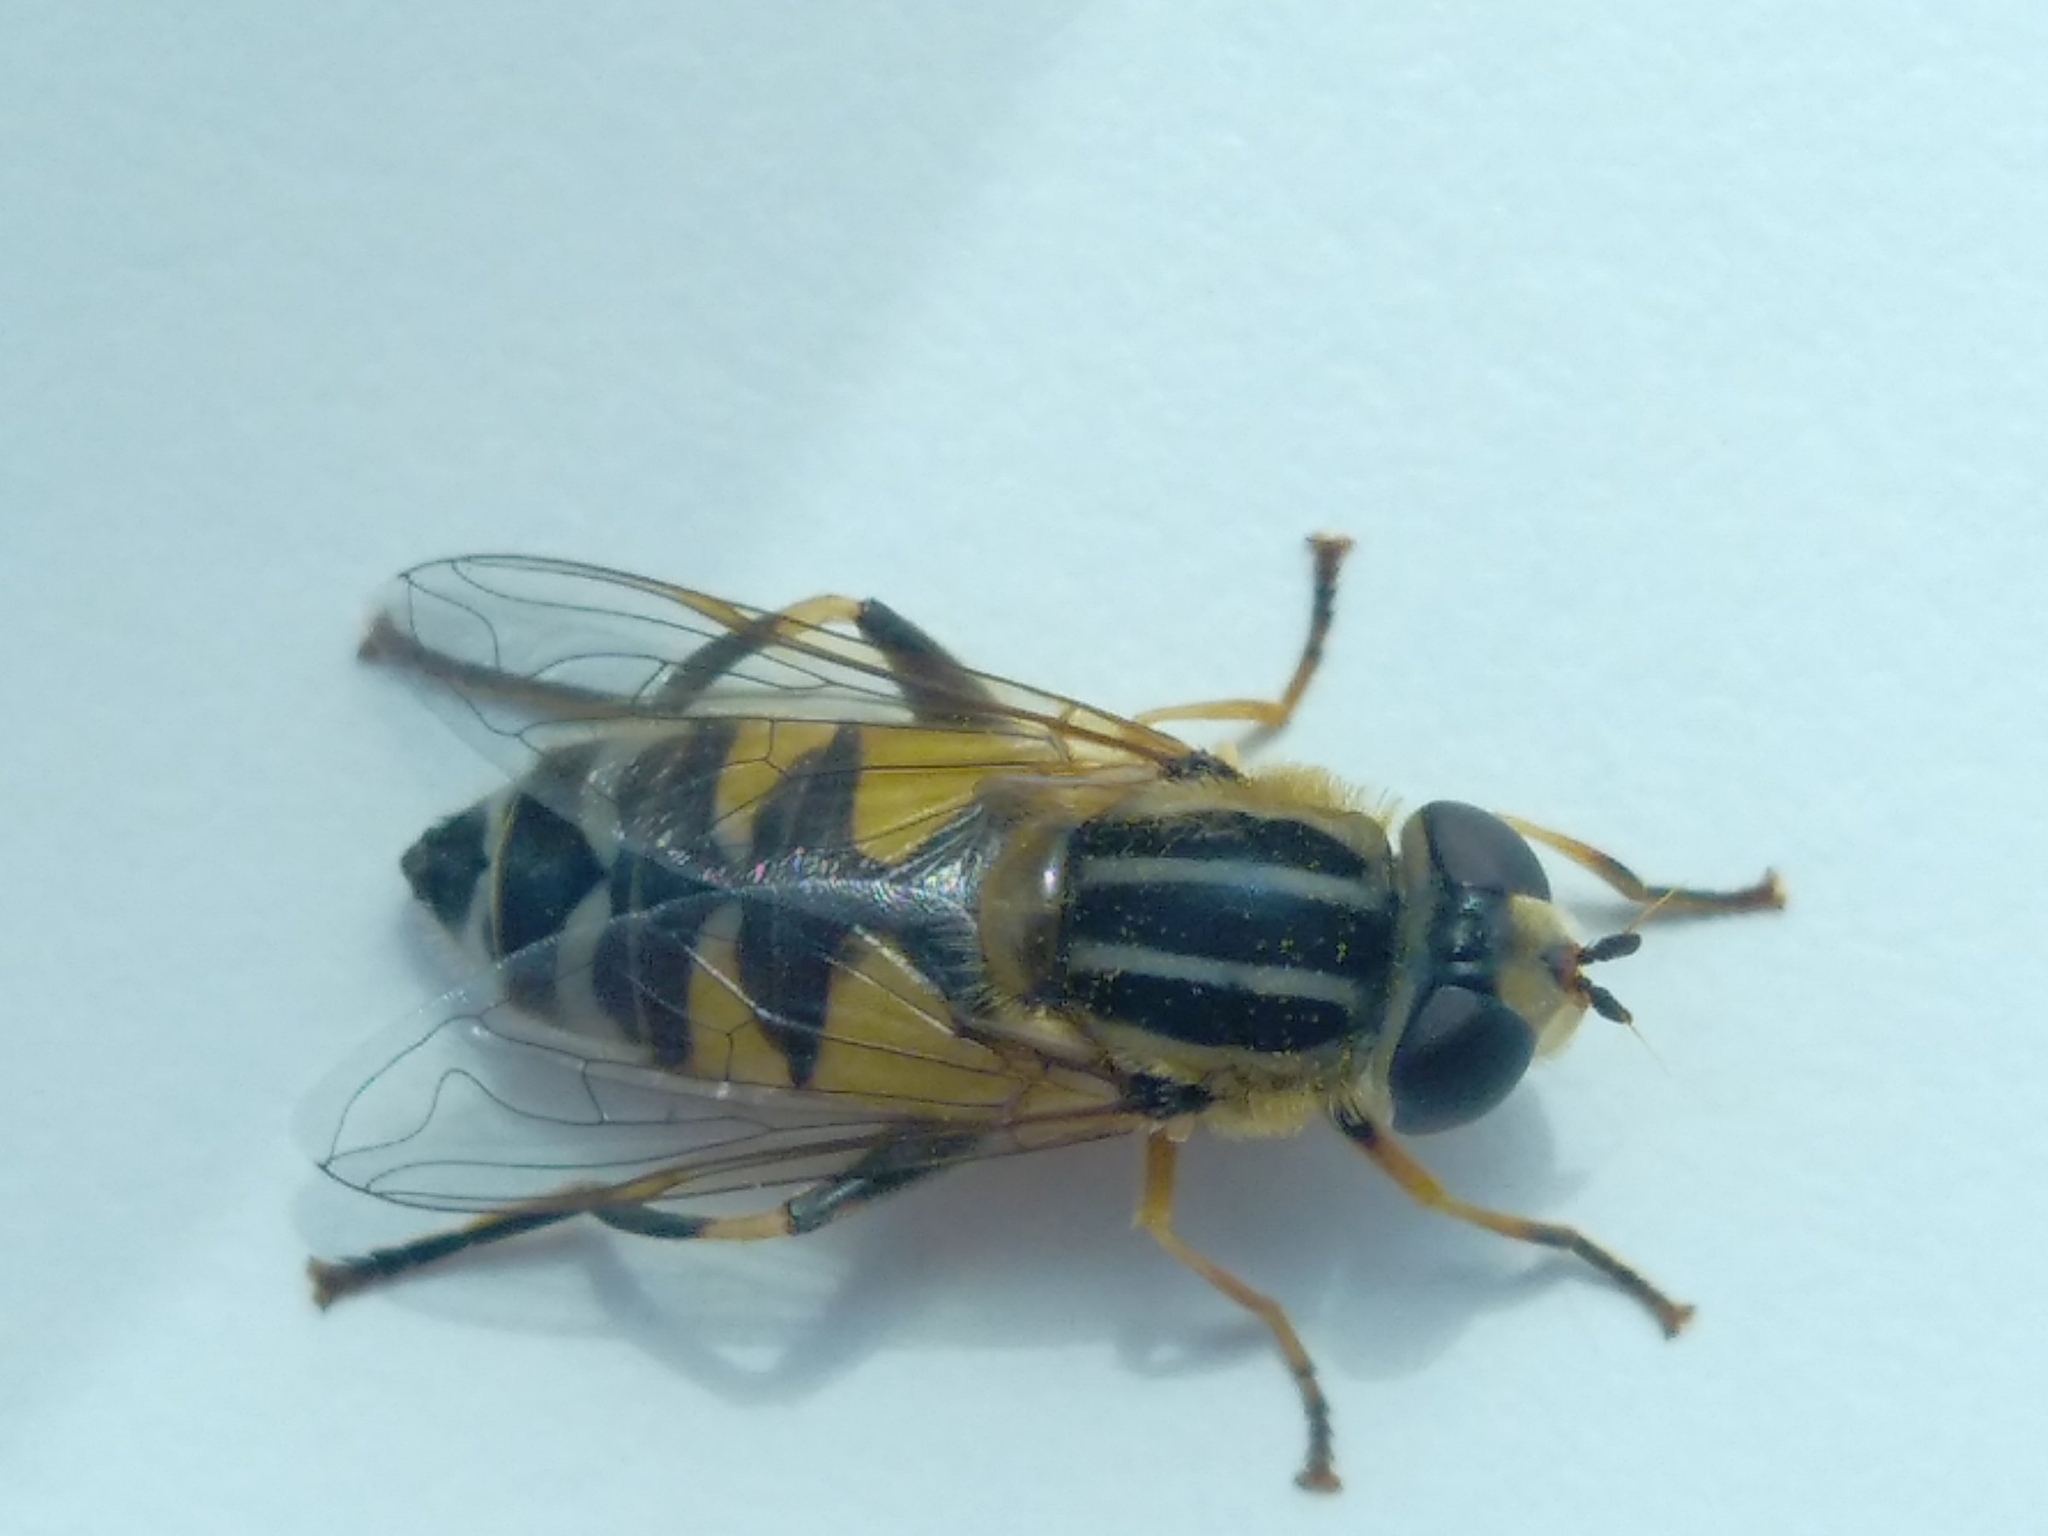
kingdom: Animalia
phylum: Arthropoda
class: Insecta
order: Diptera
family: Syrphidae
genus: Helophilus
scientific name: Helophilus trivittatus
